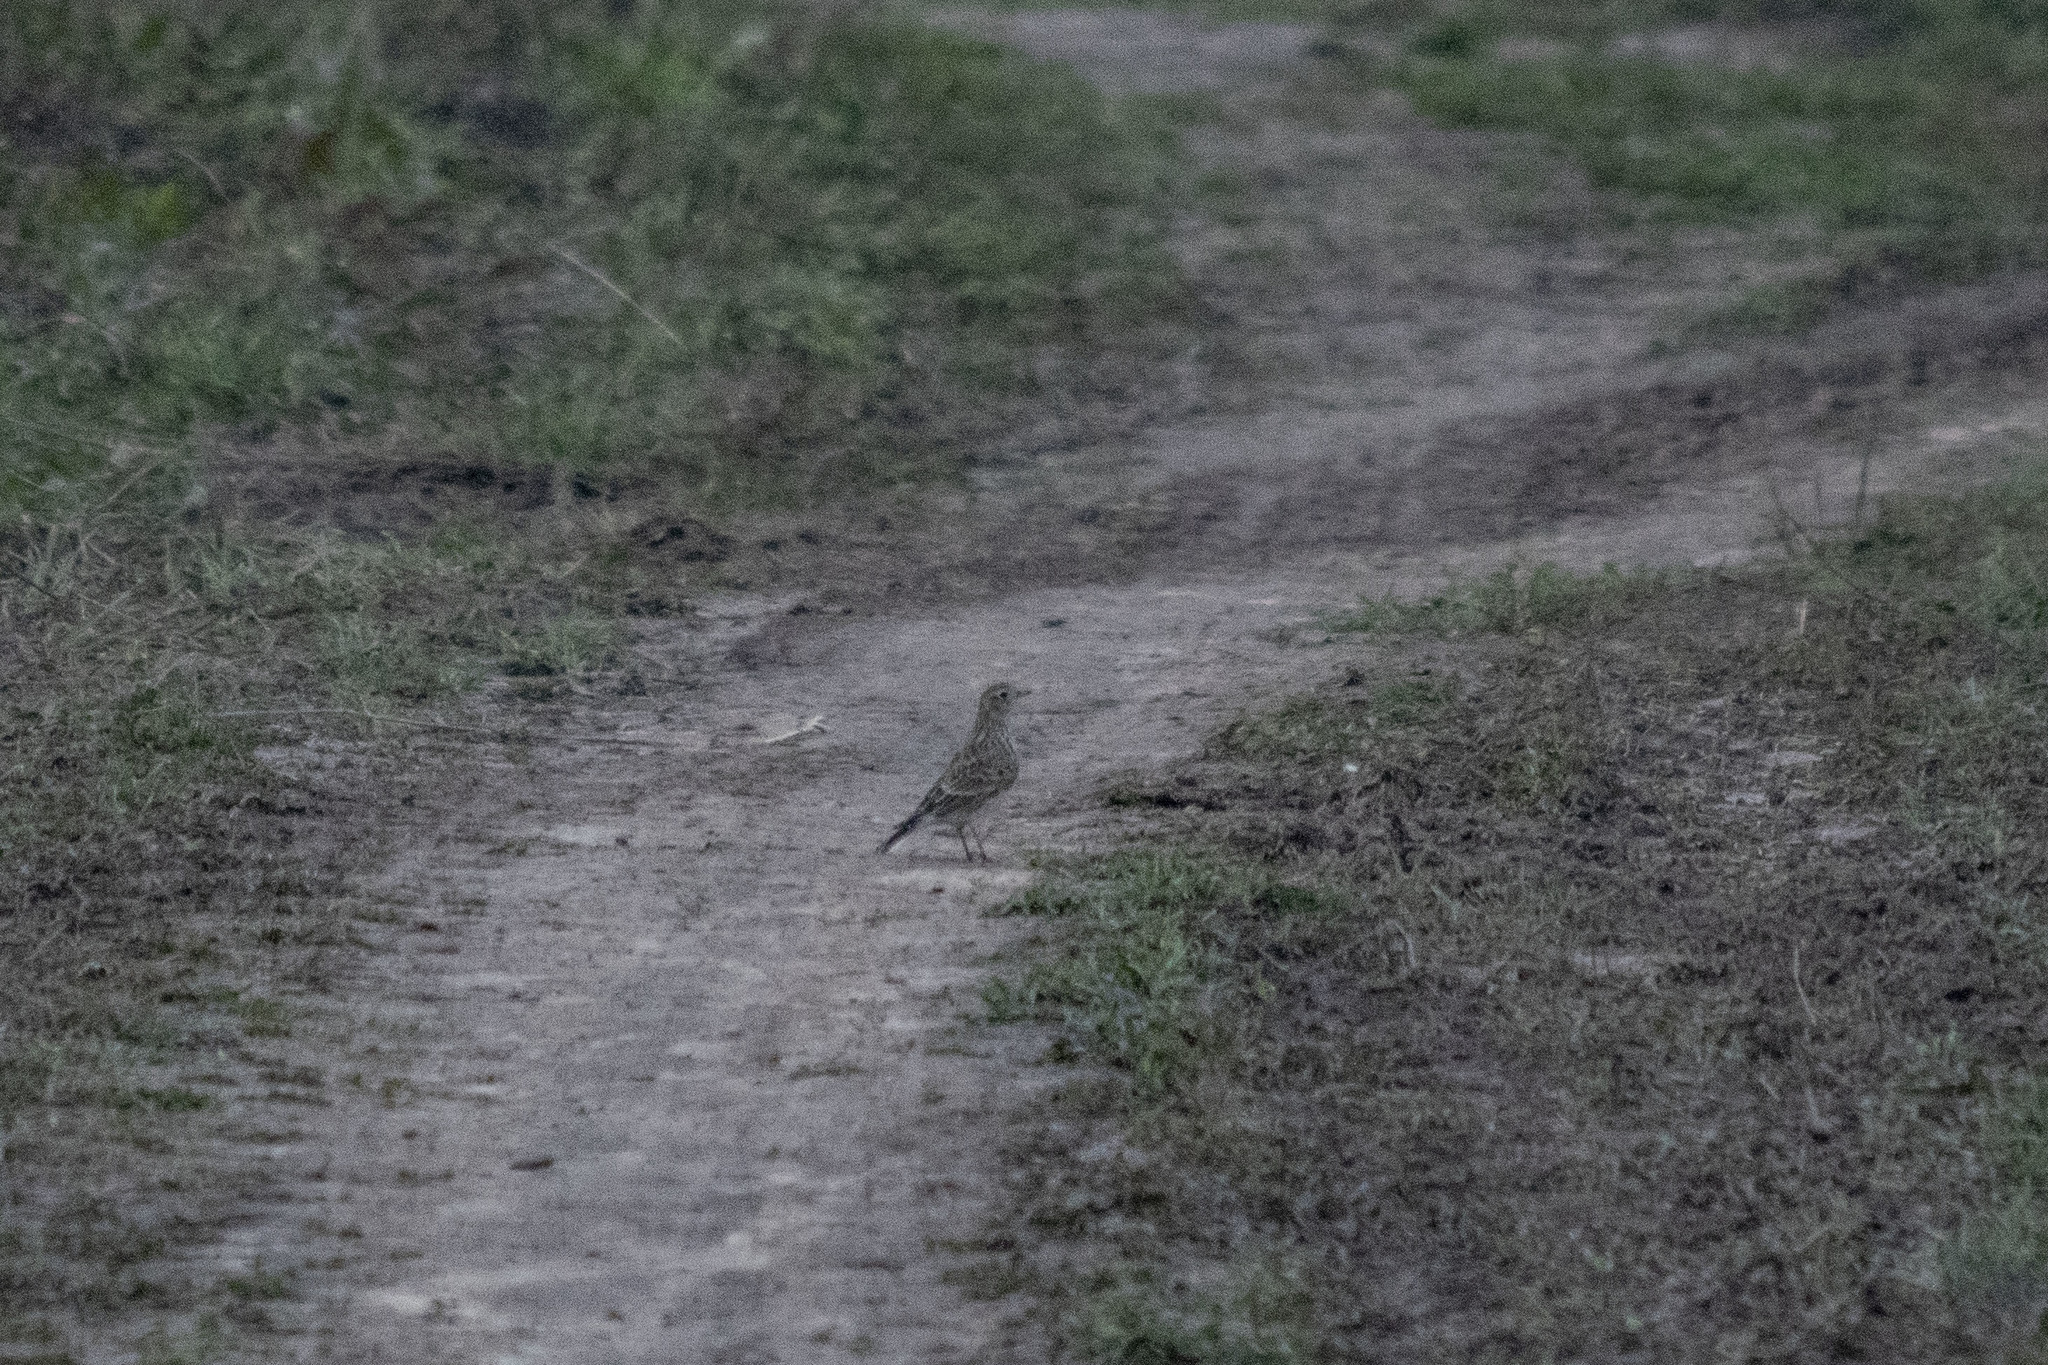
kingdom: Animalia
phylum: Chordata
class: Aves
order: Passeriformes
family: Alaudidae
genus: Alauda
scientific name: Alauda arvensis
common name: Eurasian skylark
